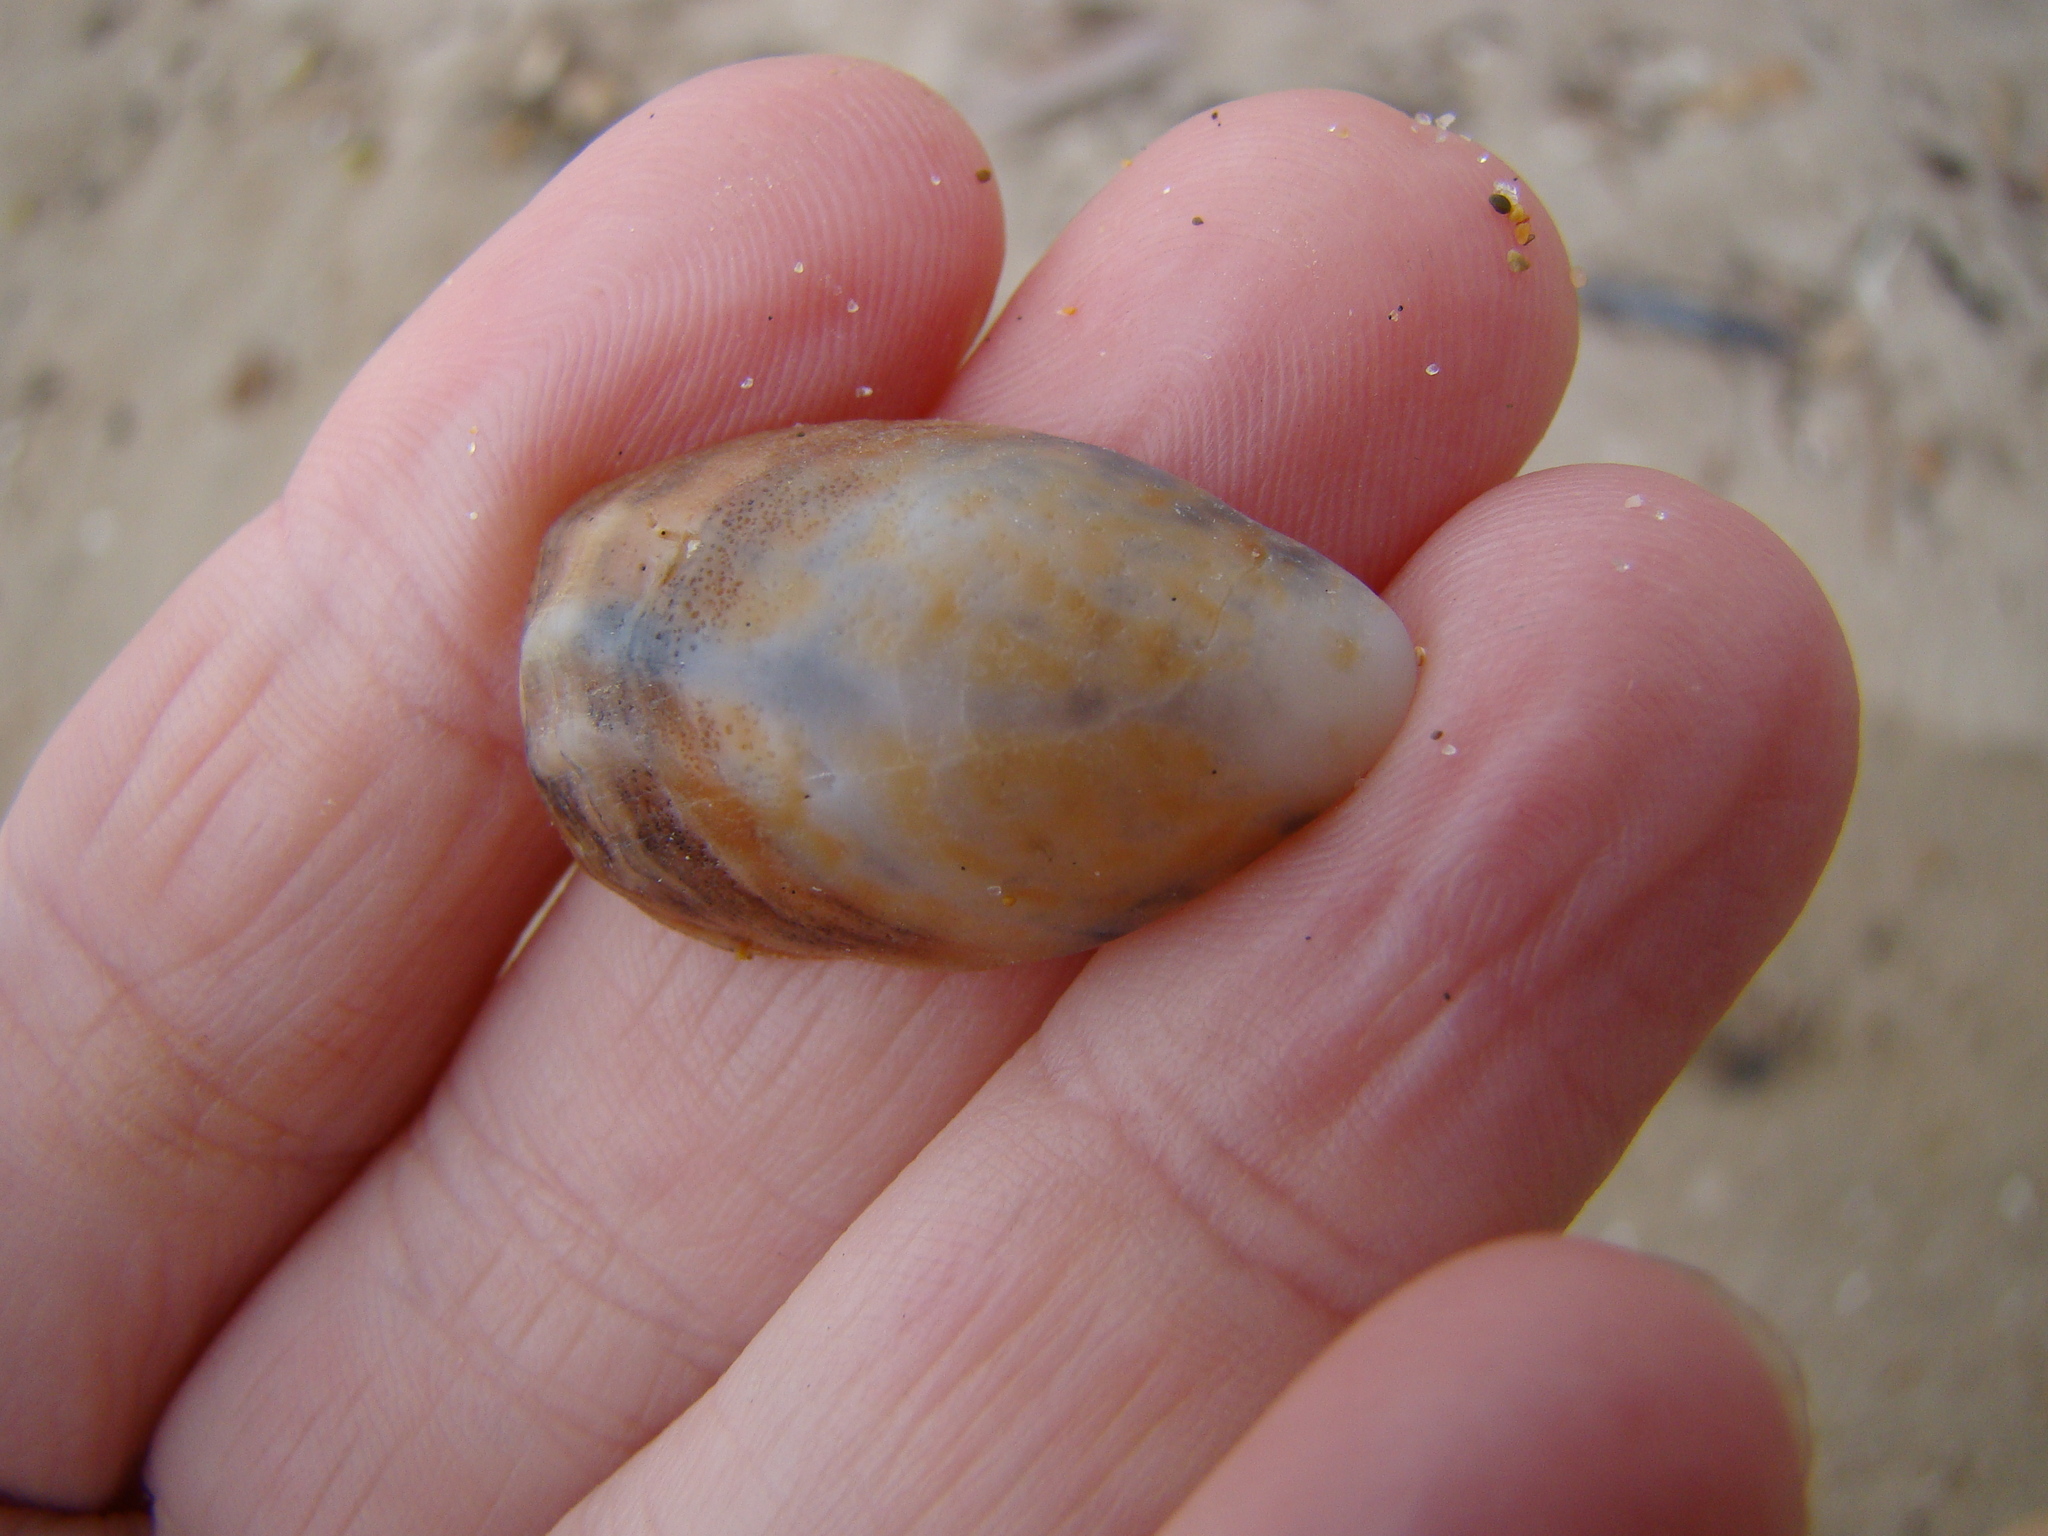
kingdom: Animalia
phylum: Mollusca
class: Gastropoda
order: Littorinimorpha
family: Calyptraeidae
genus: Maoricrypta
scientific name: Maoricrypta costata
